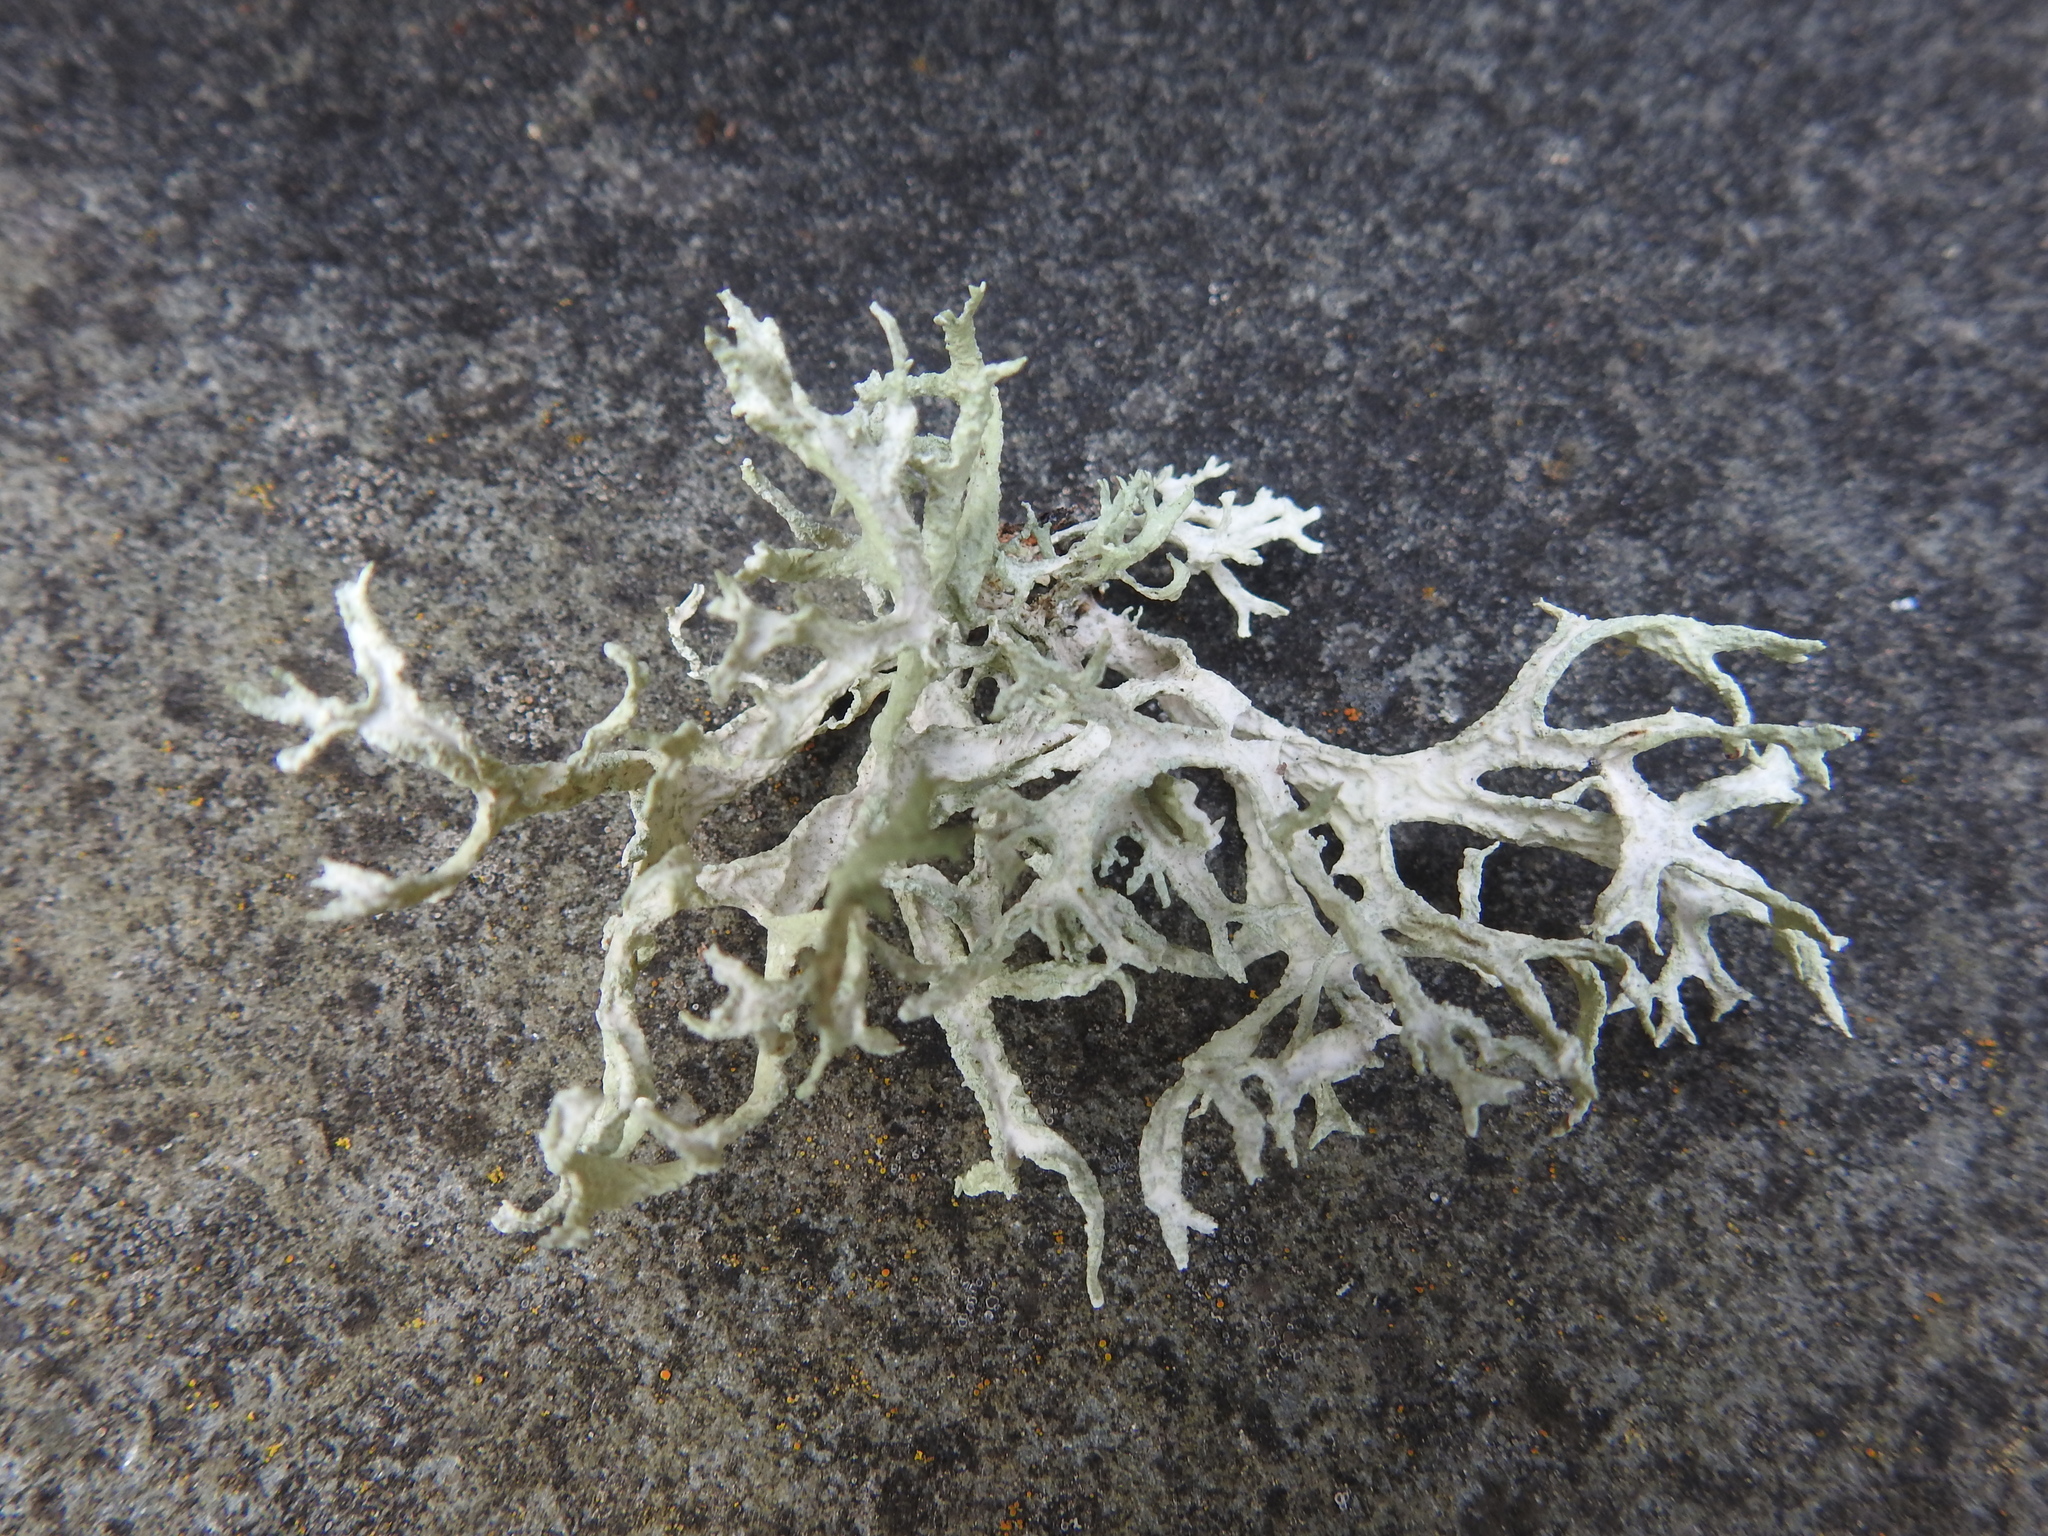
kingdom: Fungi
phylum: Ascomycota
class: Lecanoromycetes
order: Lecanorales
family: Parmeliaceae
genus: Evernia
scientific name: Evernia prunastri
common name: Oak moss
